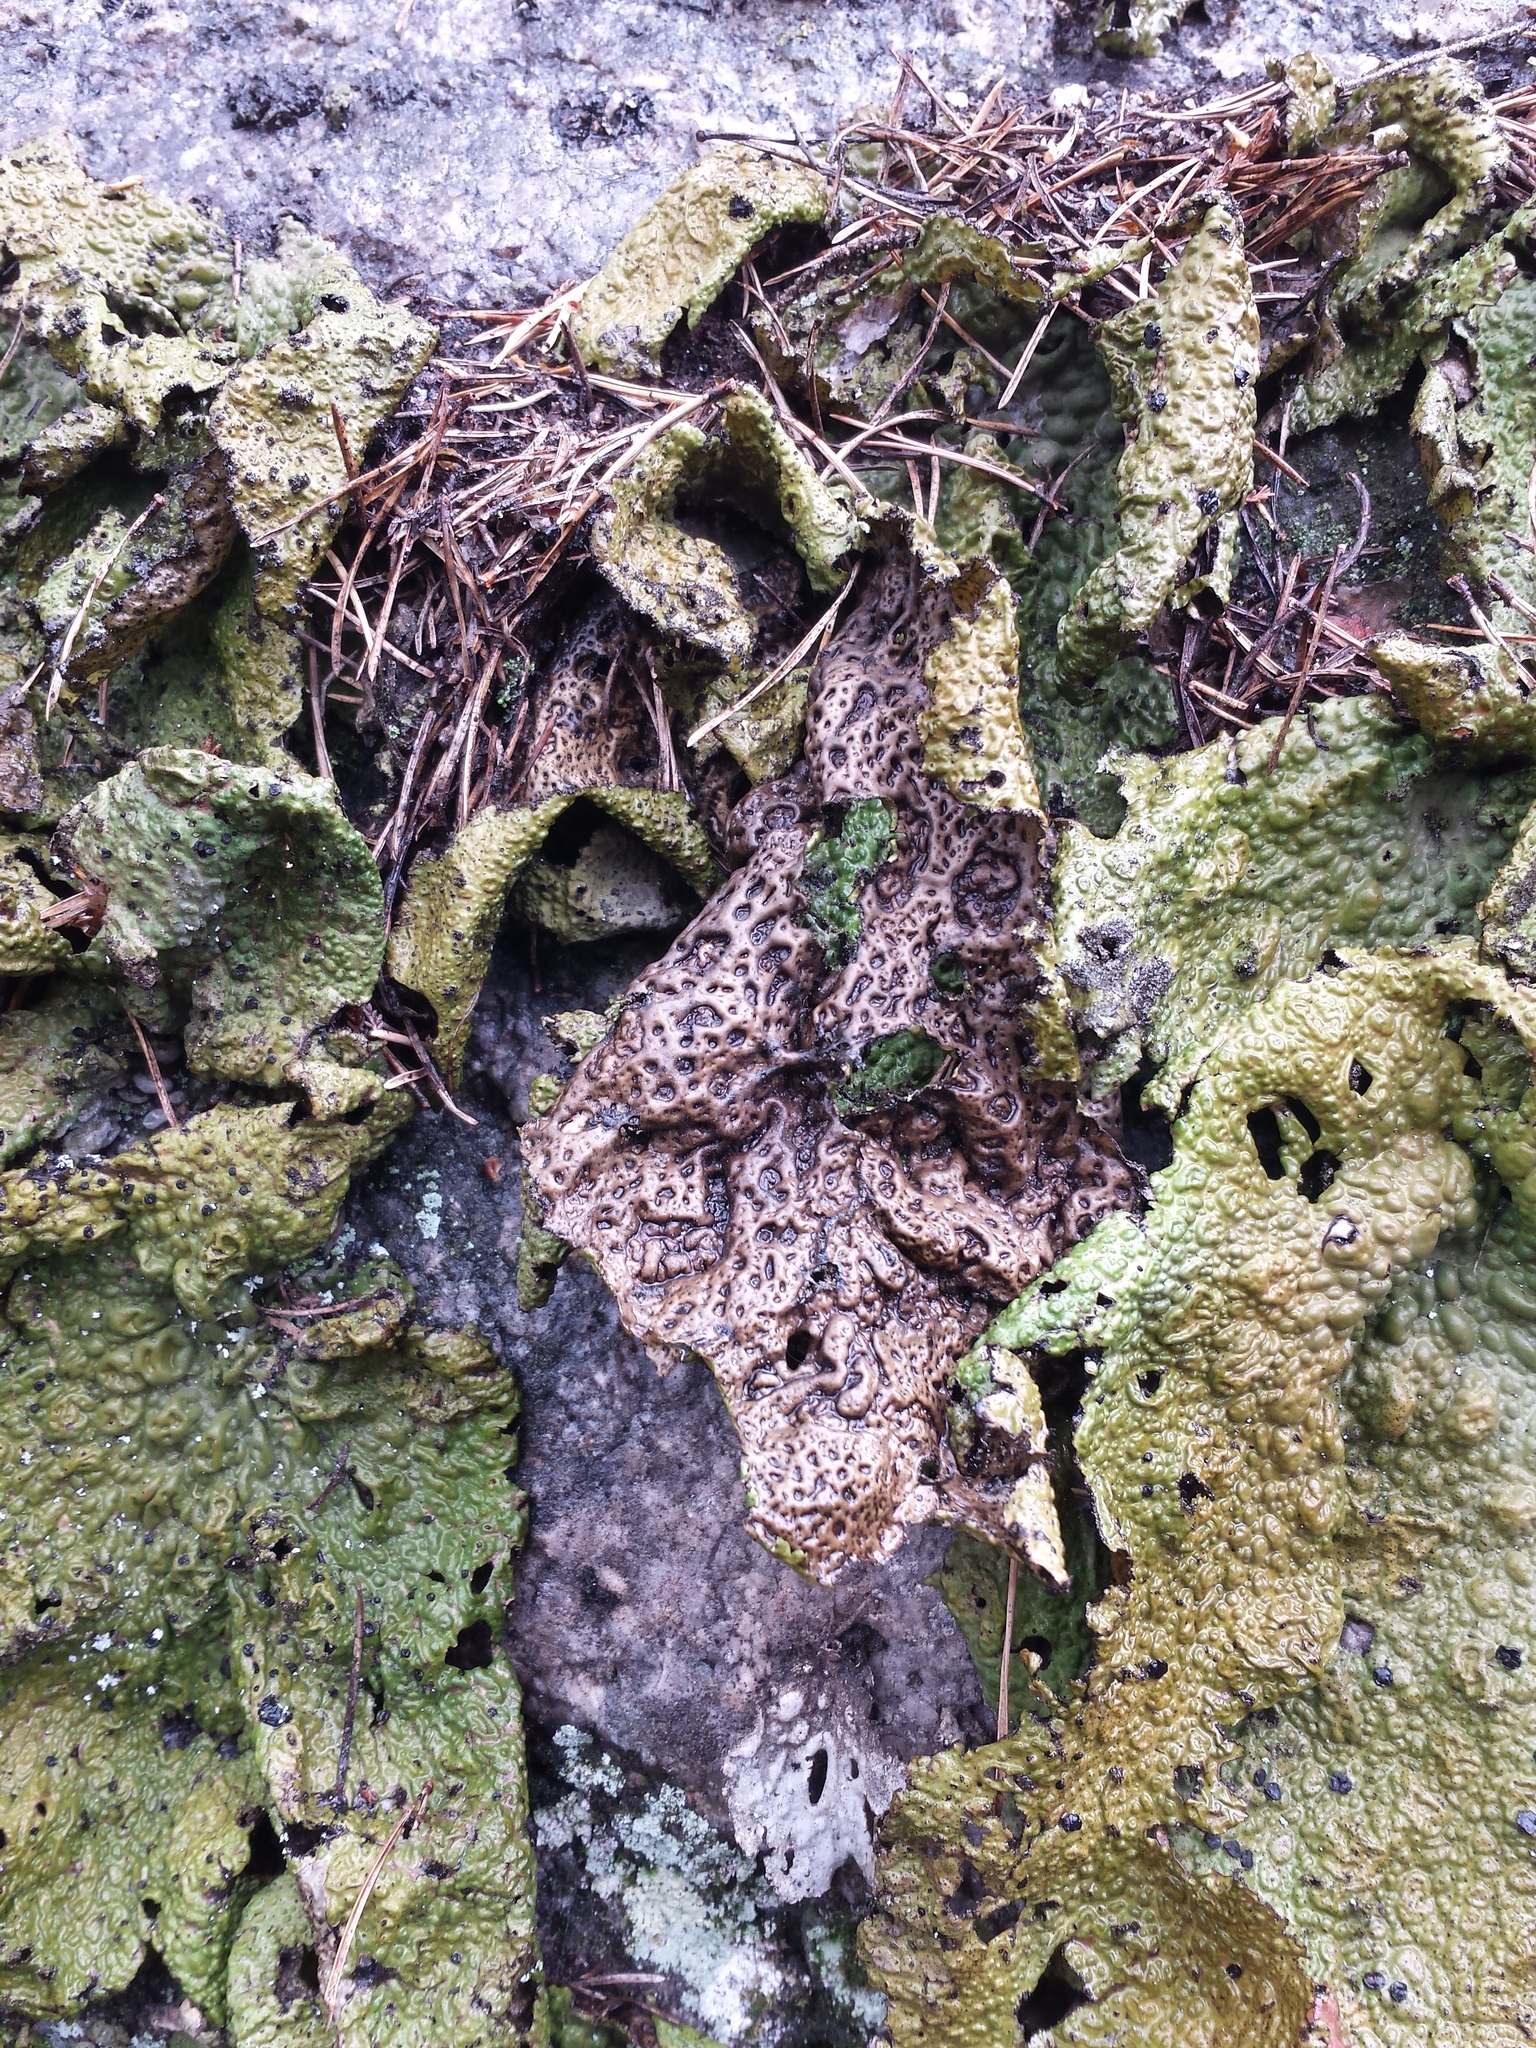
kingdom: Fungi
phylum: Ascomycota
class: Lecanoromycetes
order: Umbilicariales
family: Umbilicariaceae
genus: Lasallia
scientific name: Lasallia pustulata
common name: Blistered toadskin lichen
